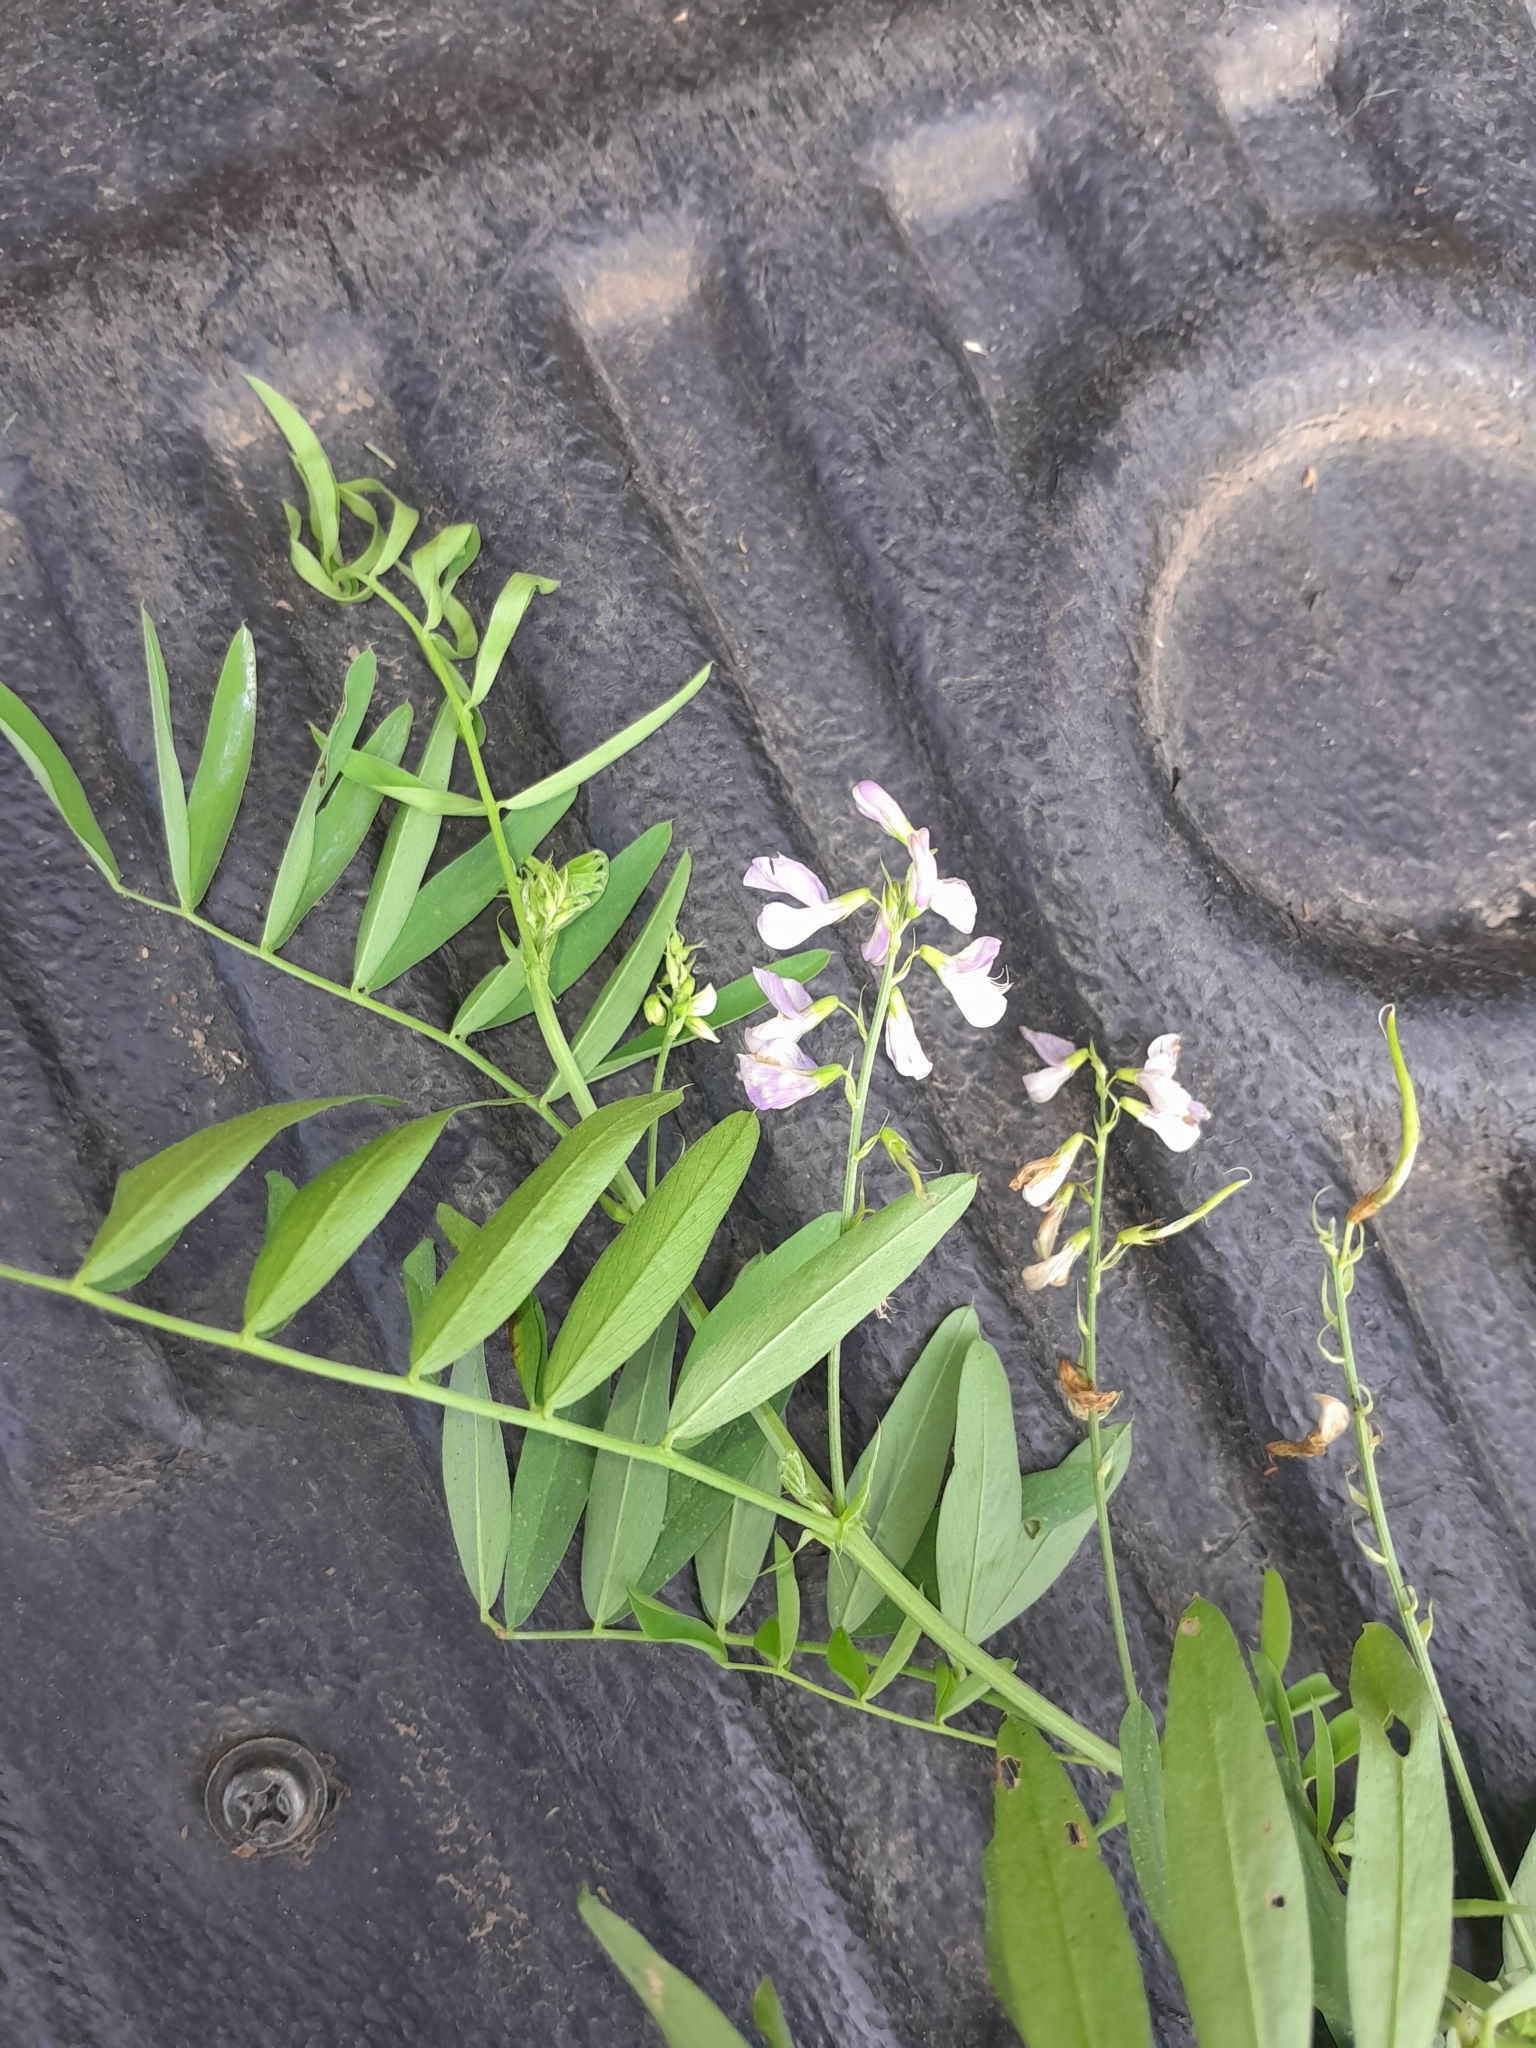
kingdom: Plantae
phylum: Tracheophyta
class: Magnoliopsida
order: Fabales
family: Fabaceae
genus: Galega
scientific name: Galega officinalis
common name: Goat's-rue
